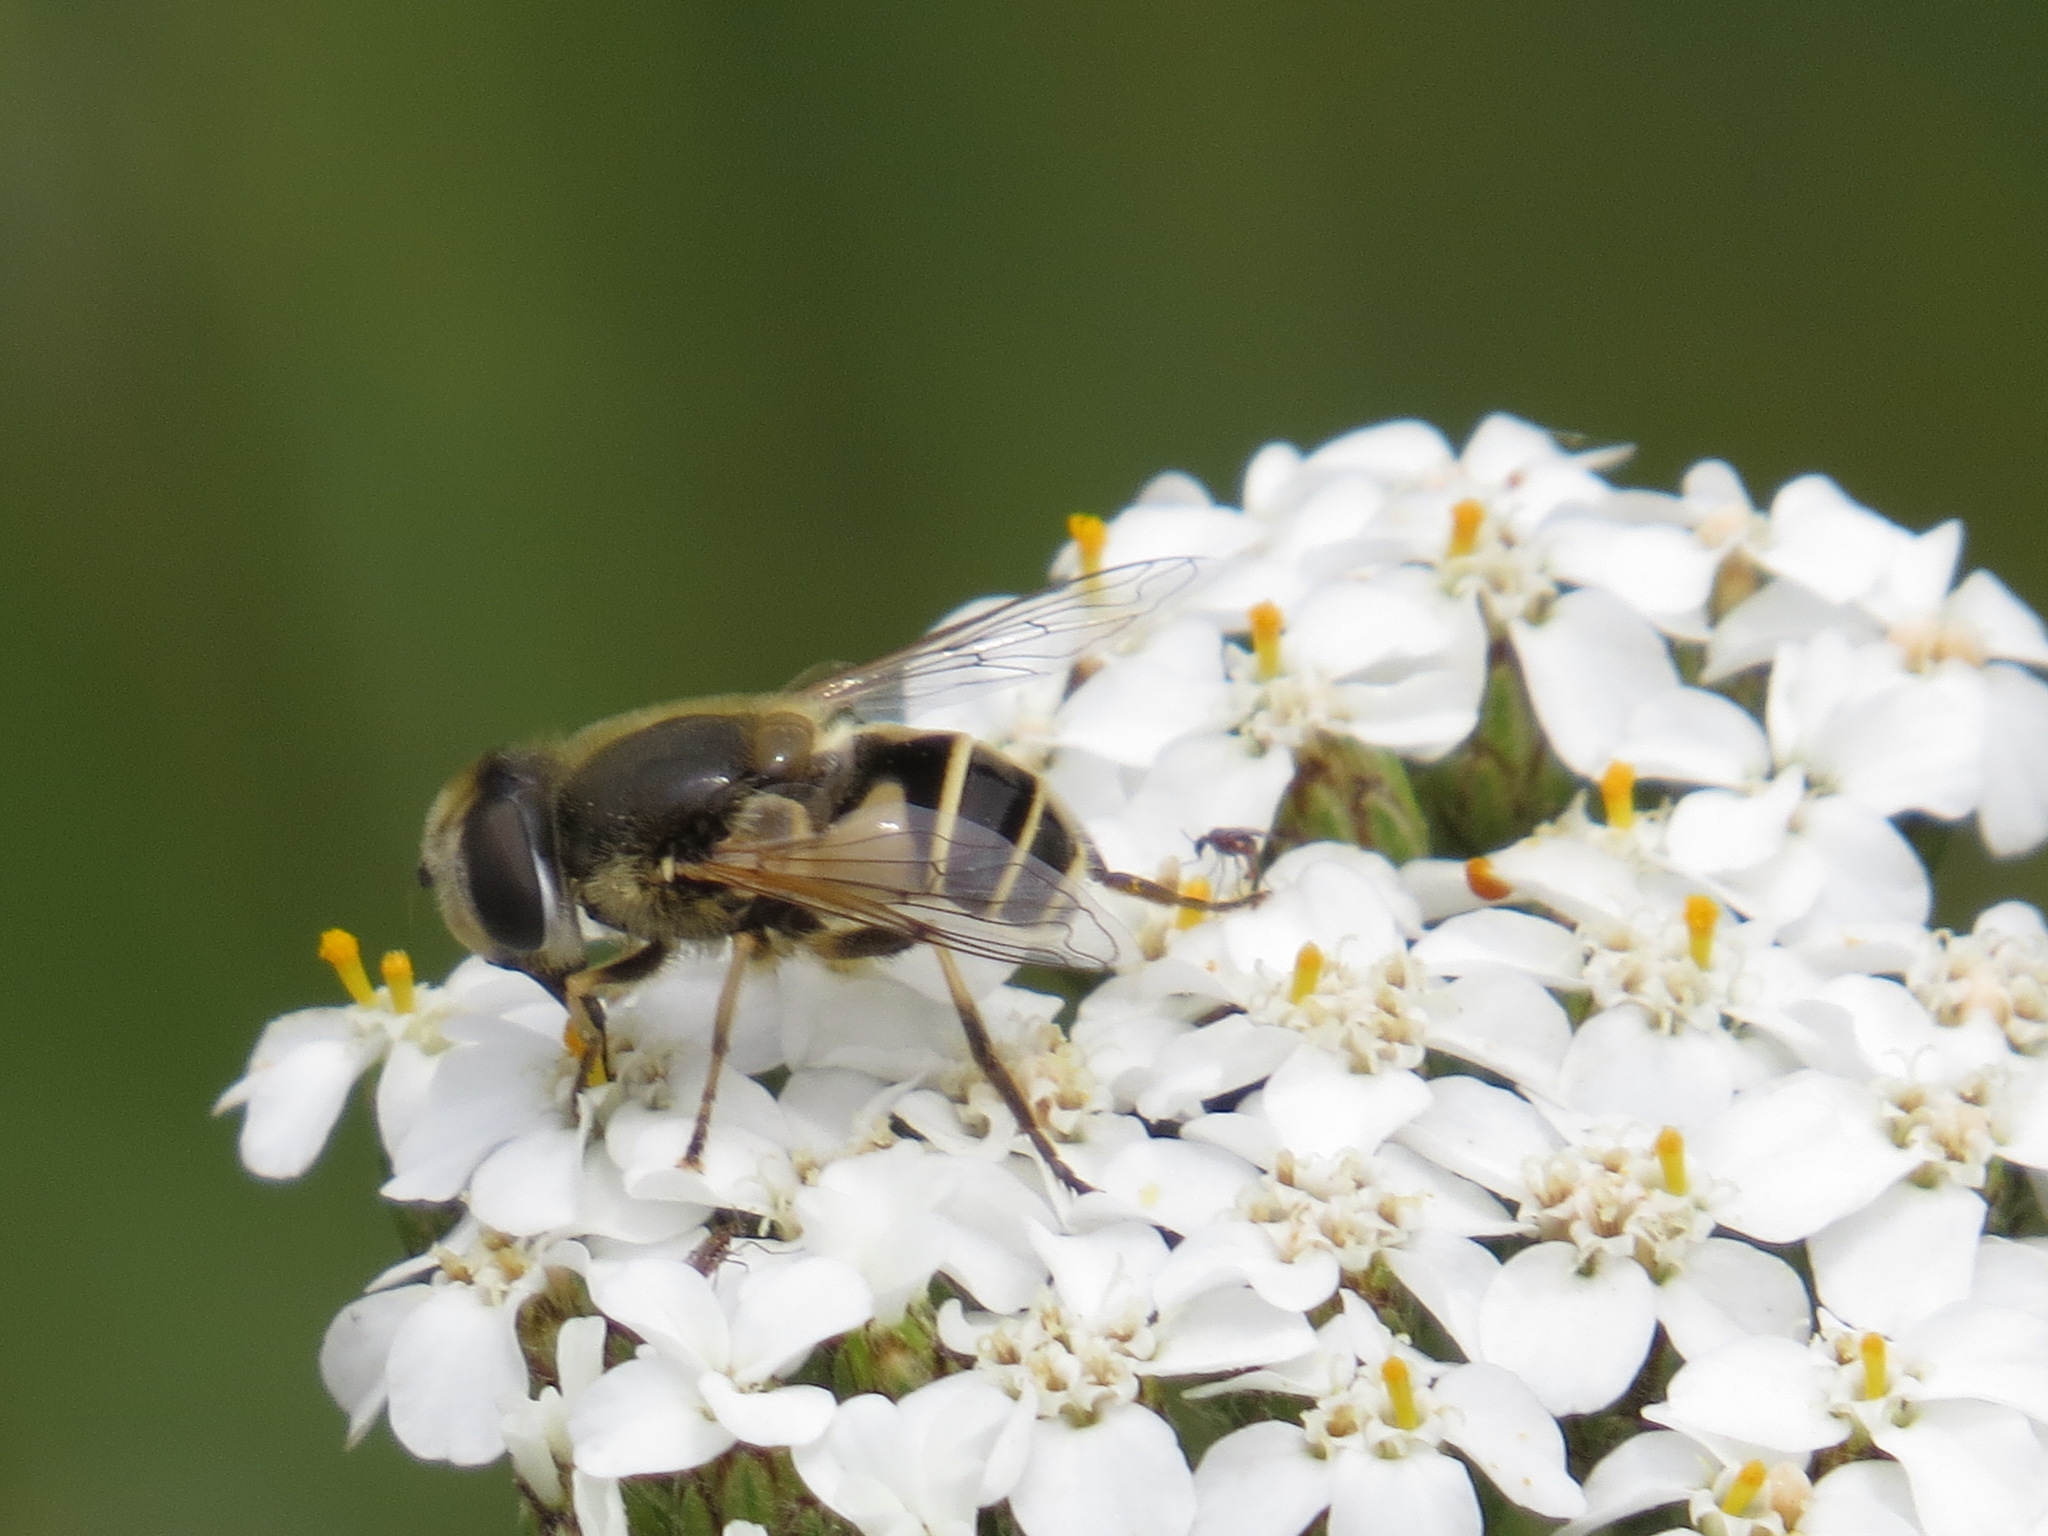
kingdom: Animalia
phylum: Arthropoda
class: Insecta
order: Diptera
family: Syrphidae
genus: Eristalis
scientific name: Eristalis hirta
